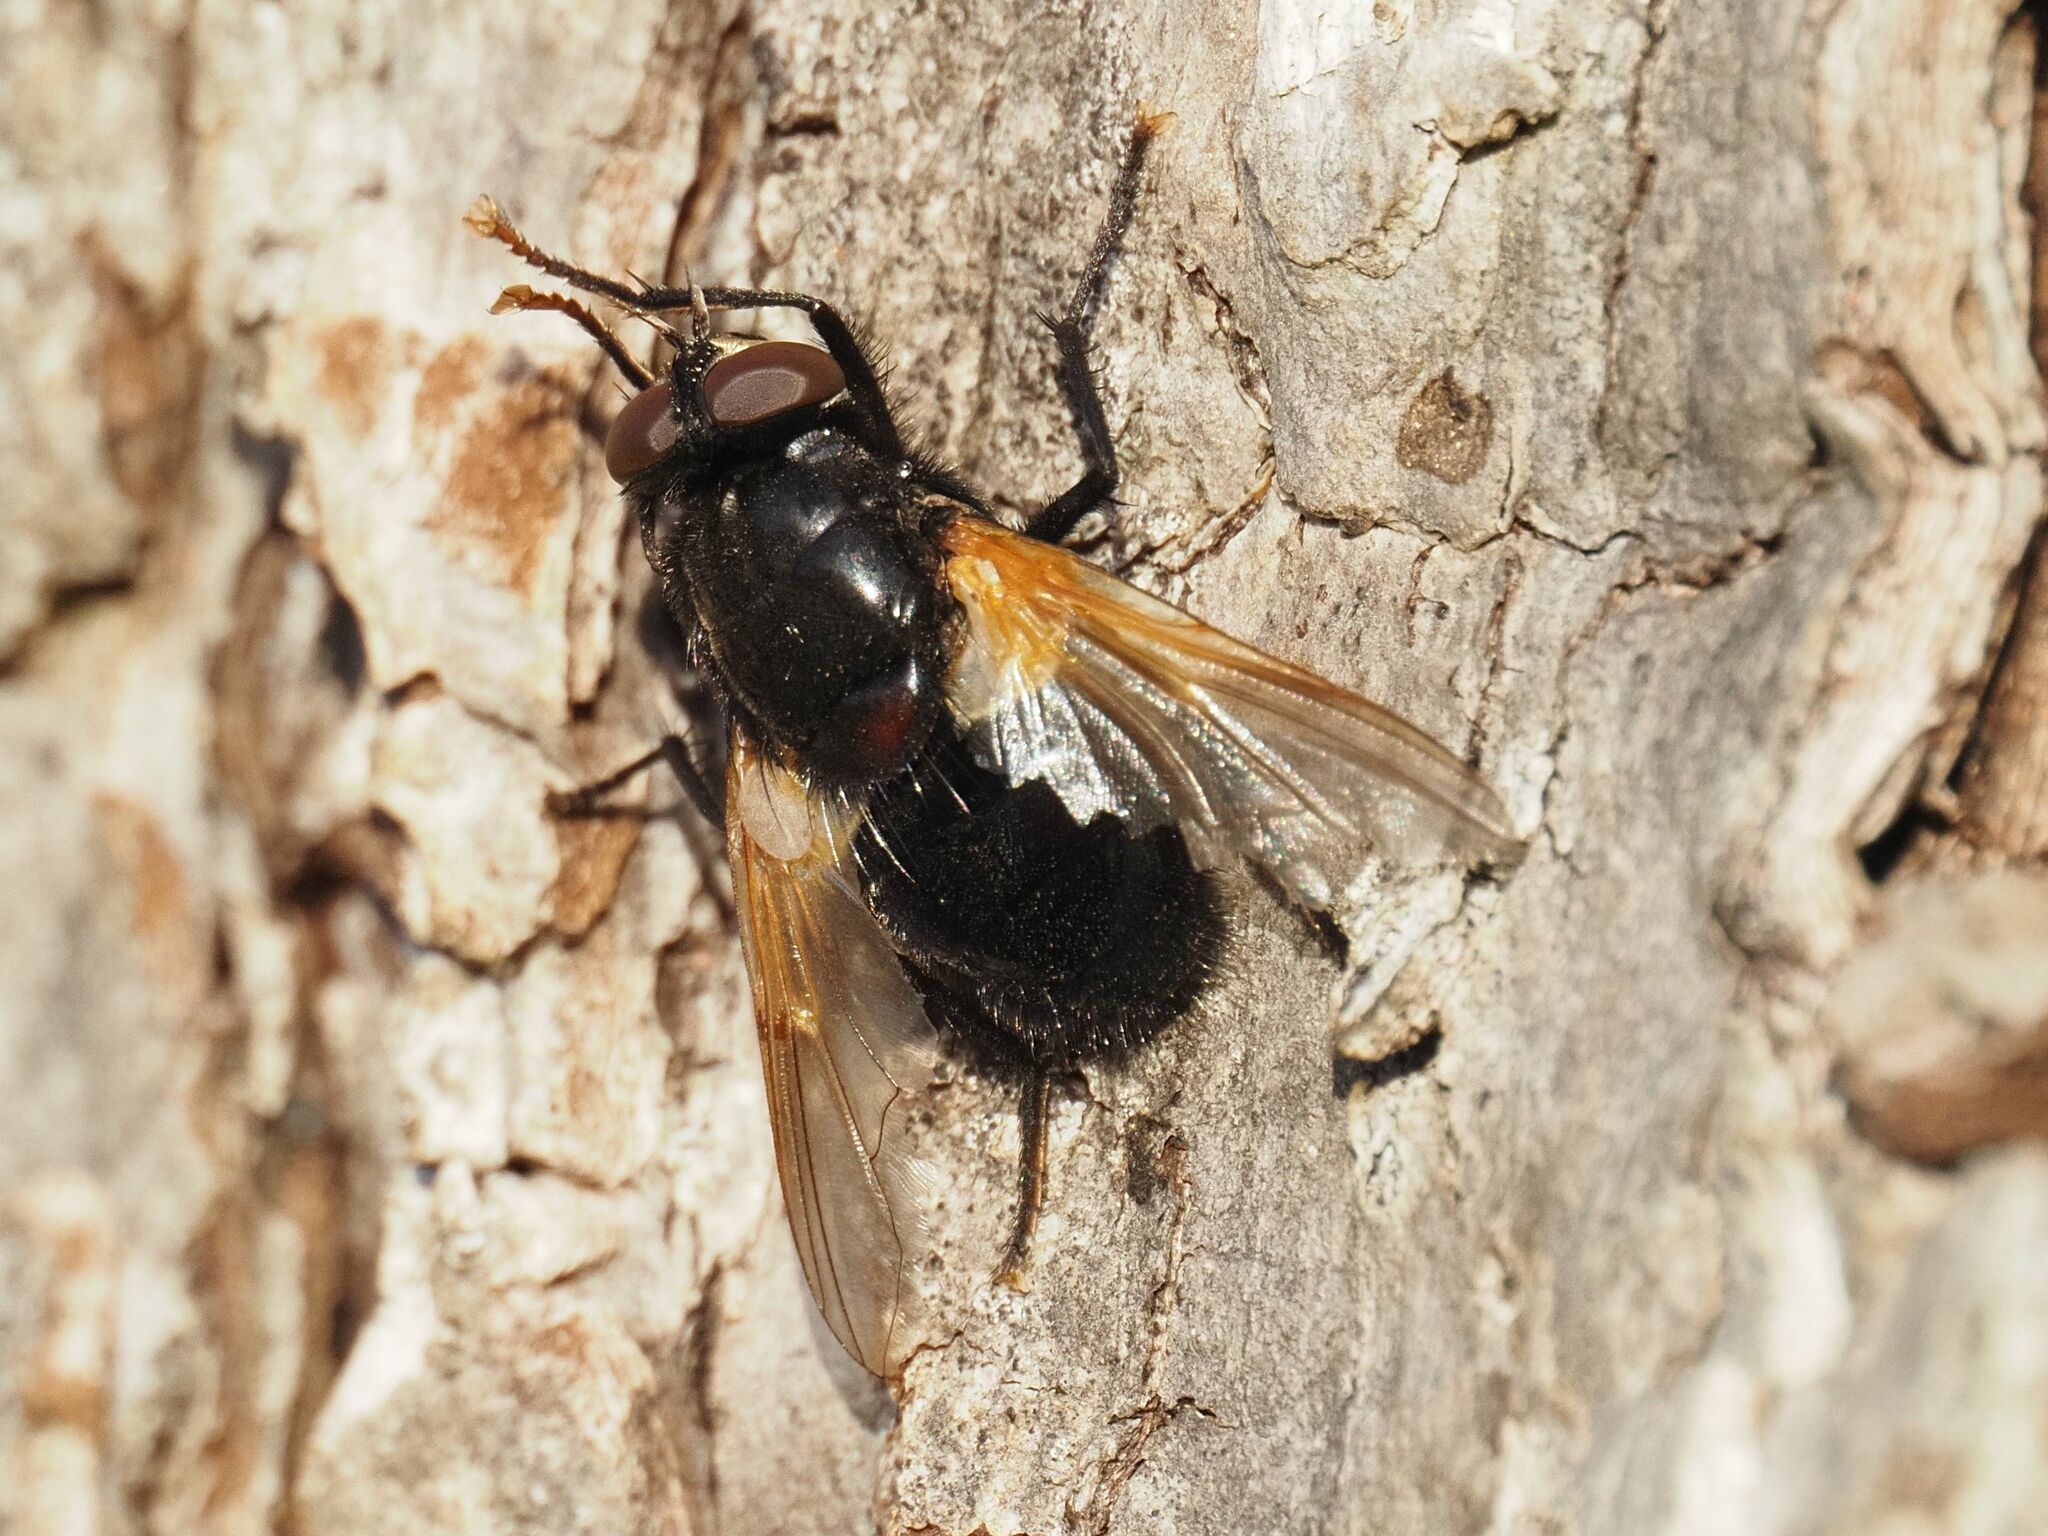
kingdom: Animalia
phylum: Arthropoda
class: Insecta
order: Diptera
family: Muscidae
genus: Mesembrina
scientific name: Mesembrina meridiana
